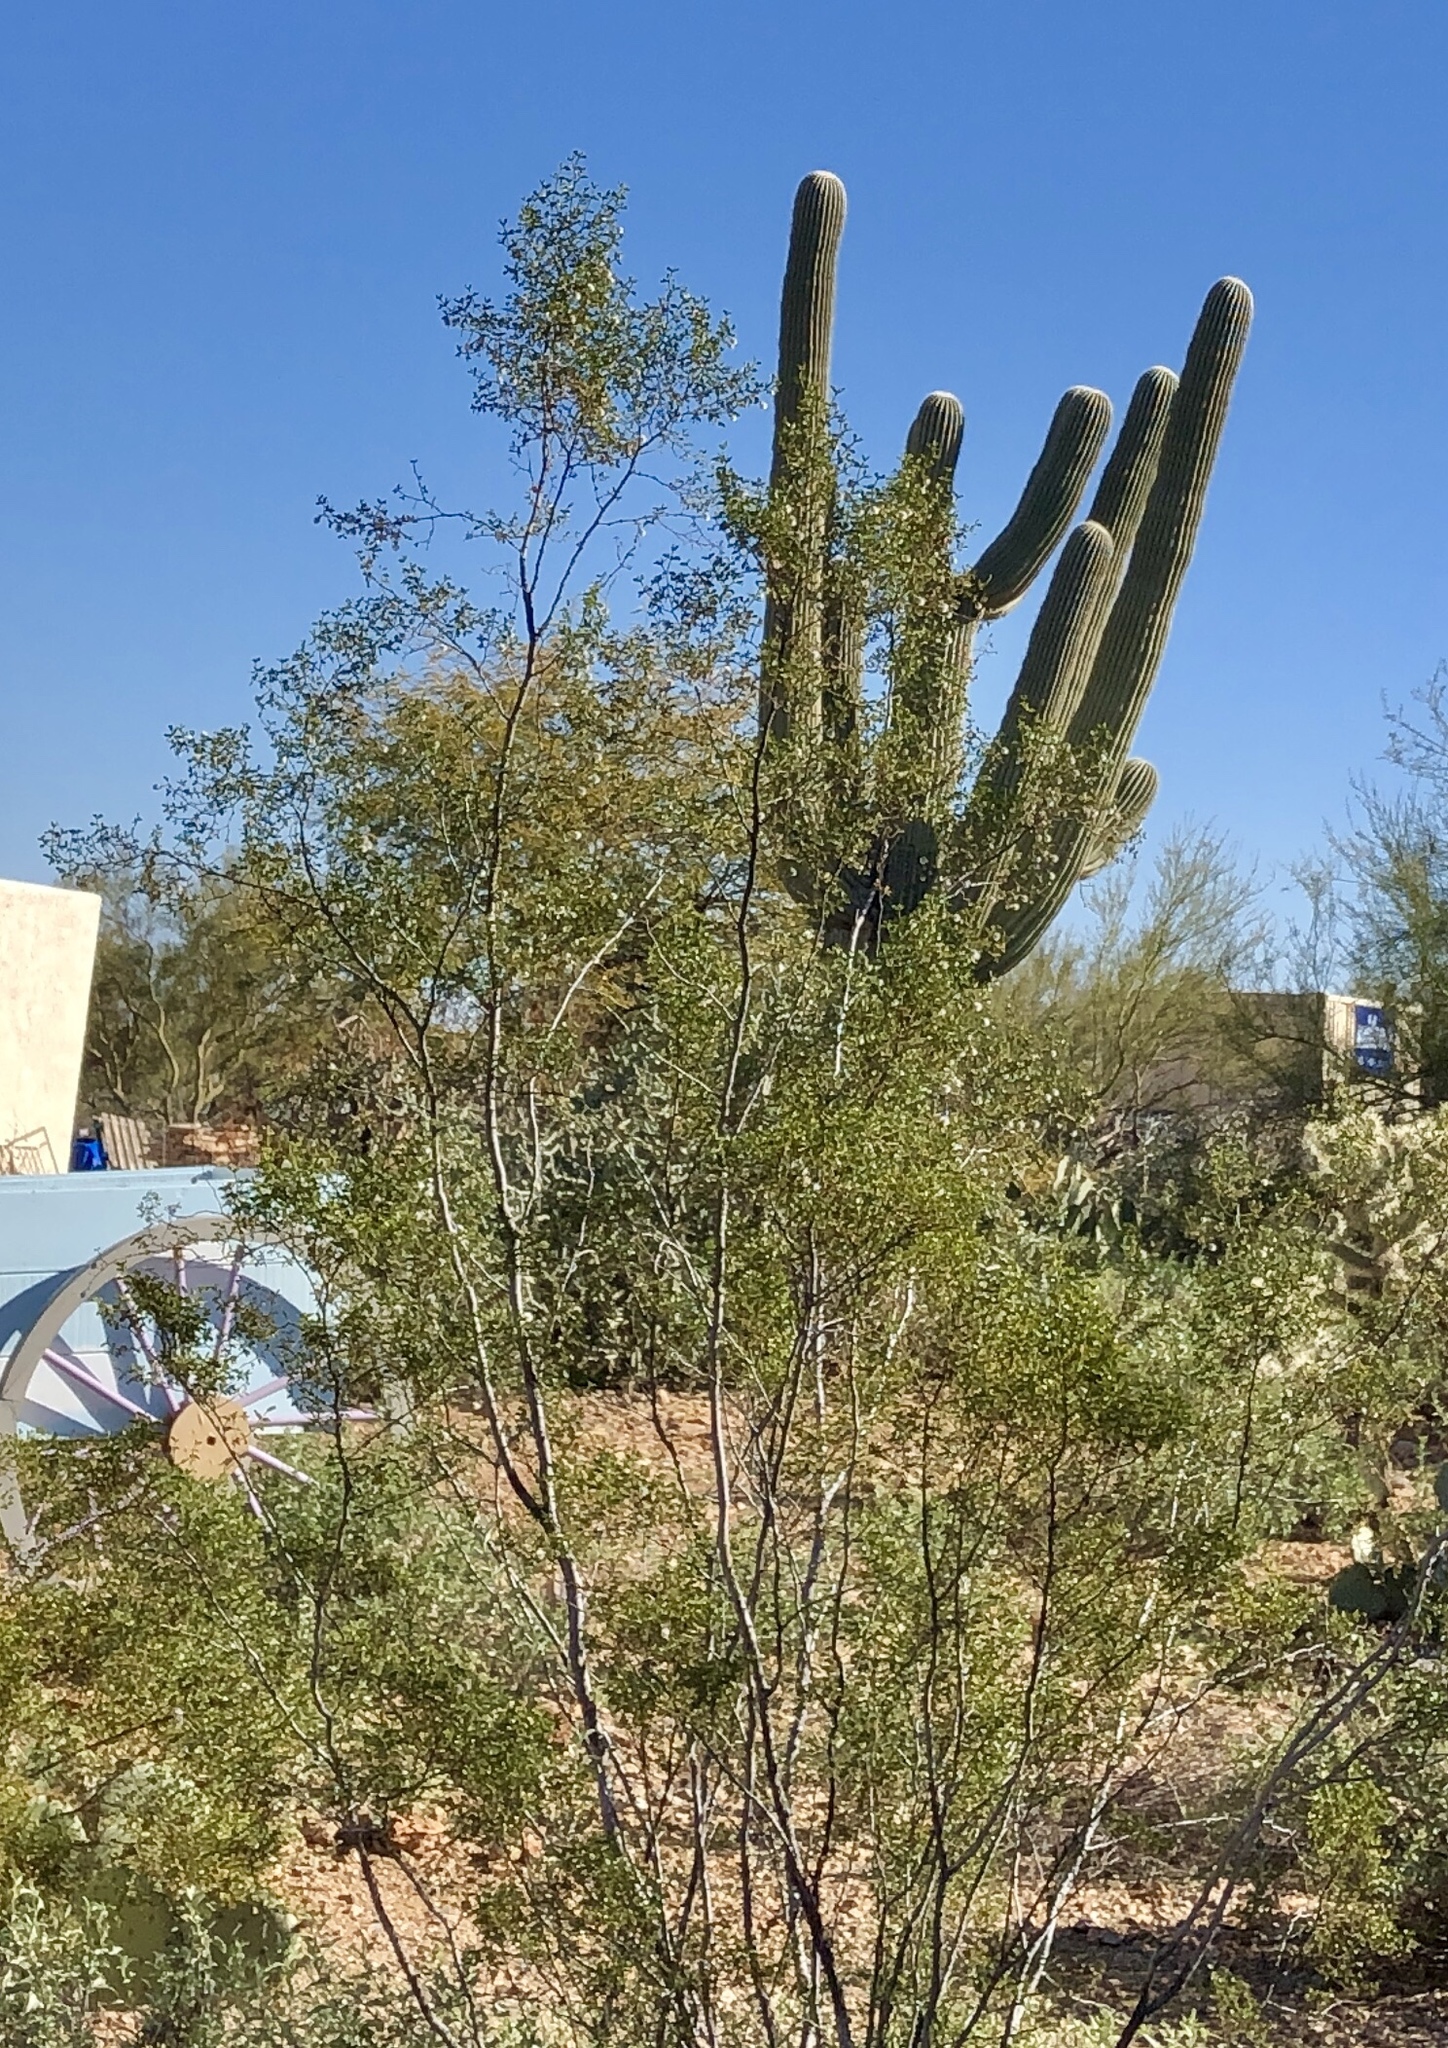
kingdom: Plantae
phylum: Tracheophyta
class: Magnoliopsida
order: Zygophyllales
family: Zygophyllaceae
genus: Larrea
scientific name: Larrea tridentata
